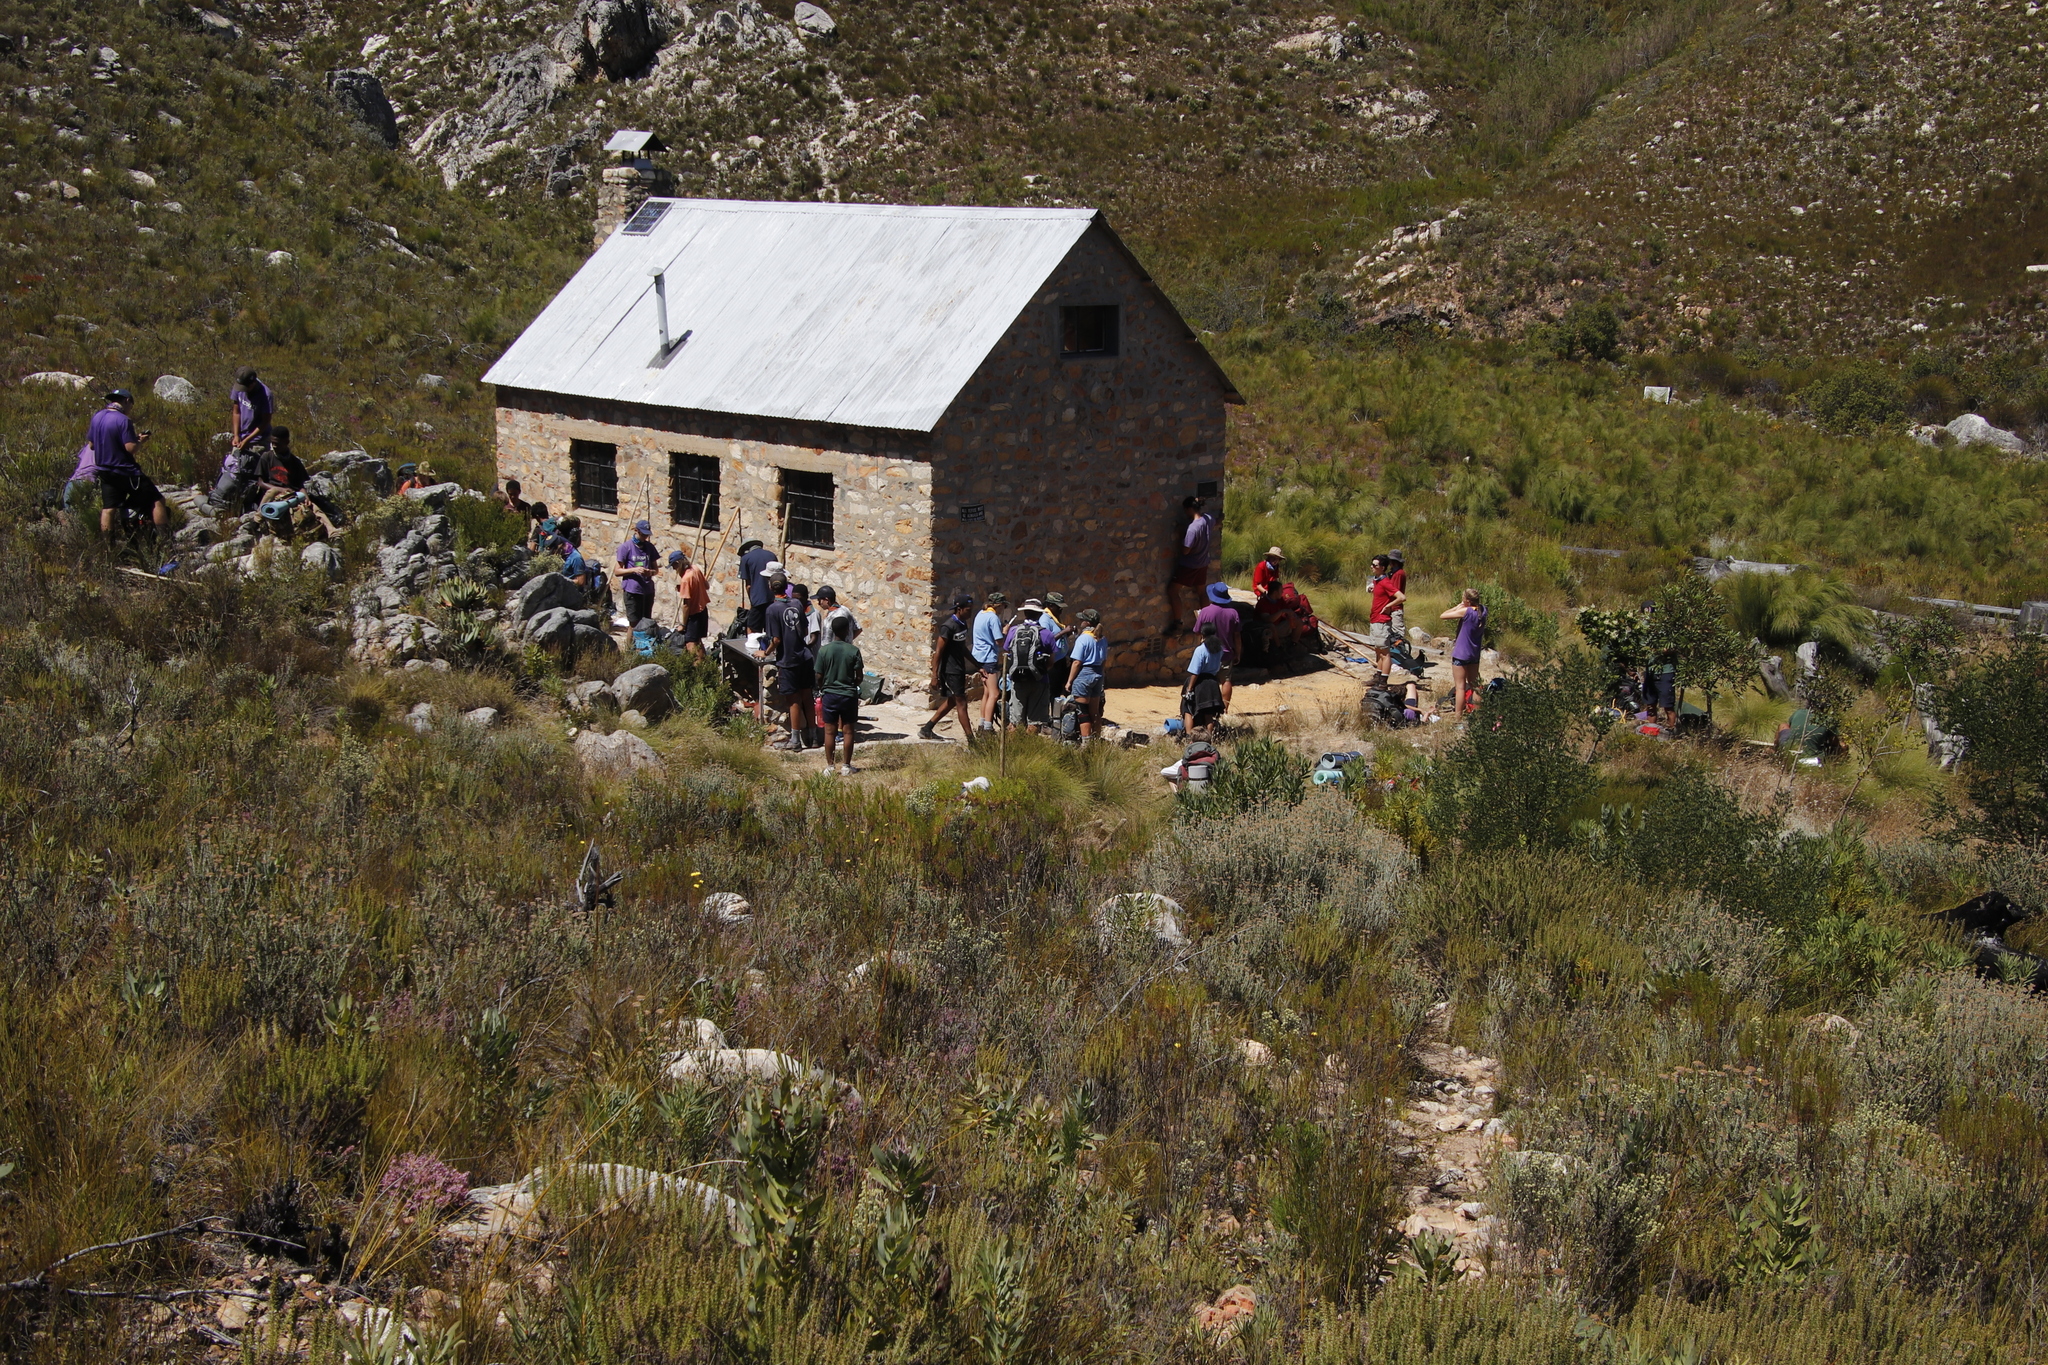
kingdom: Plantae
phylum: Tracheophyta
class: Magnoliopsida
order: Proteales
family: Proteaceae
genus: Protea
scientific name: Protea laurifolia
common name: Grey-leaf sugarbsh
